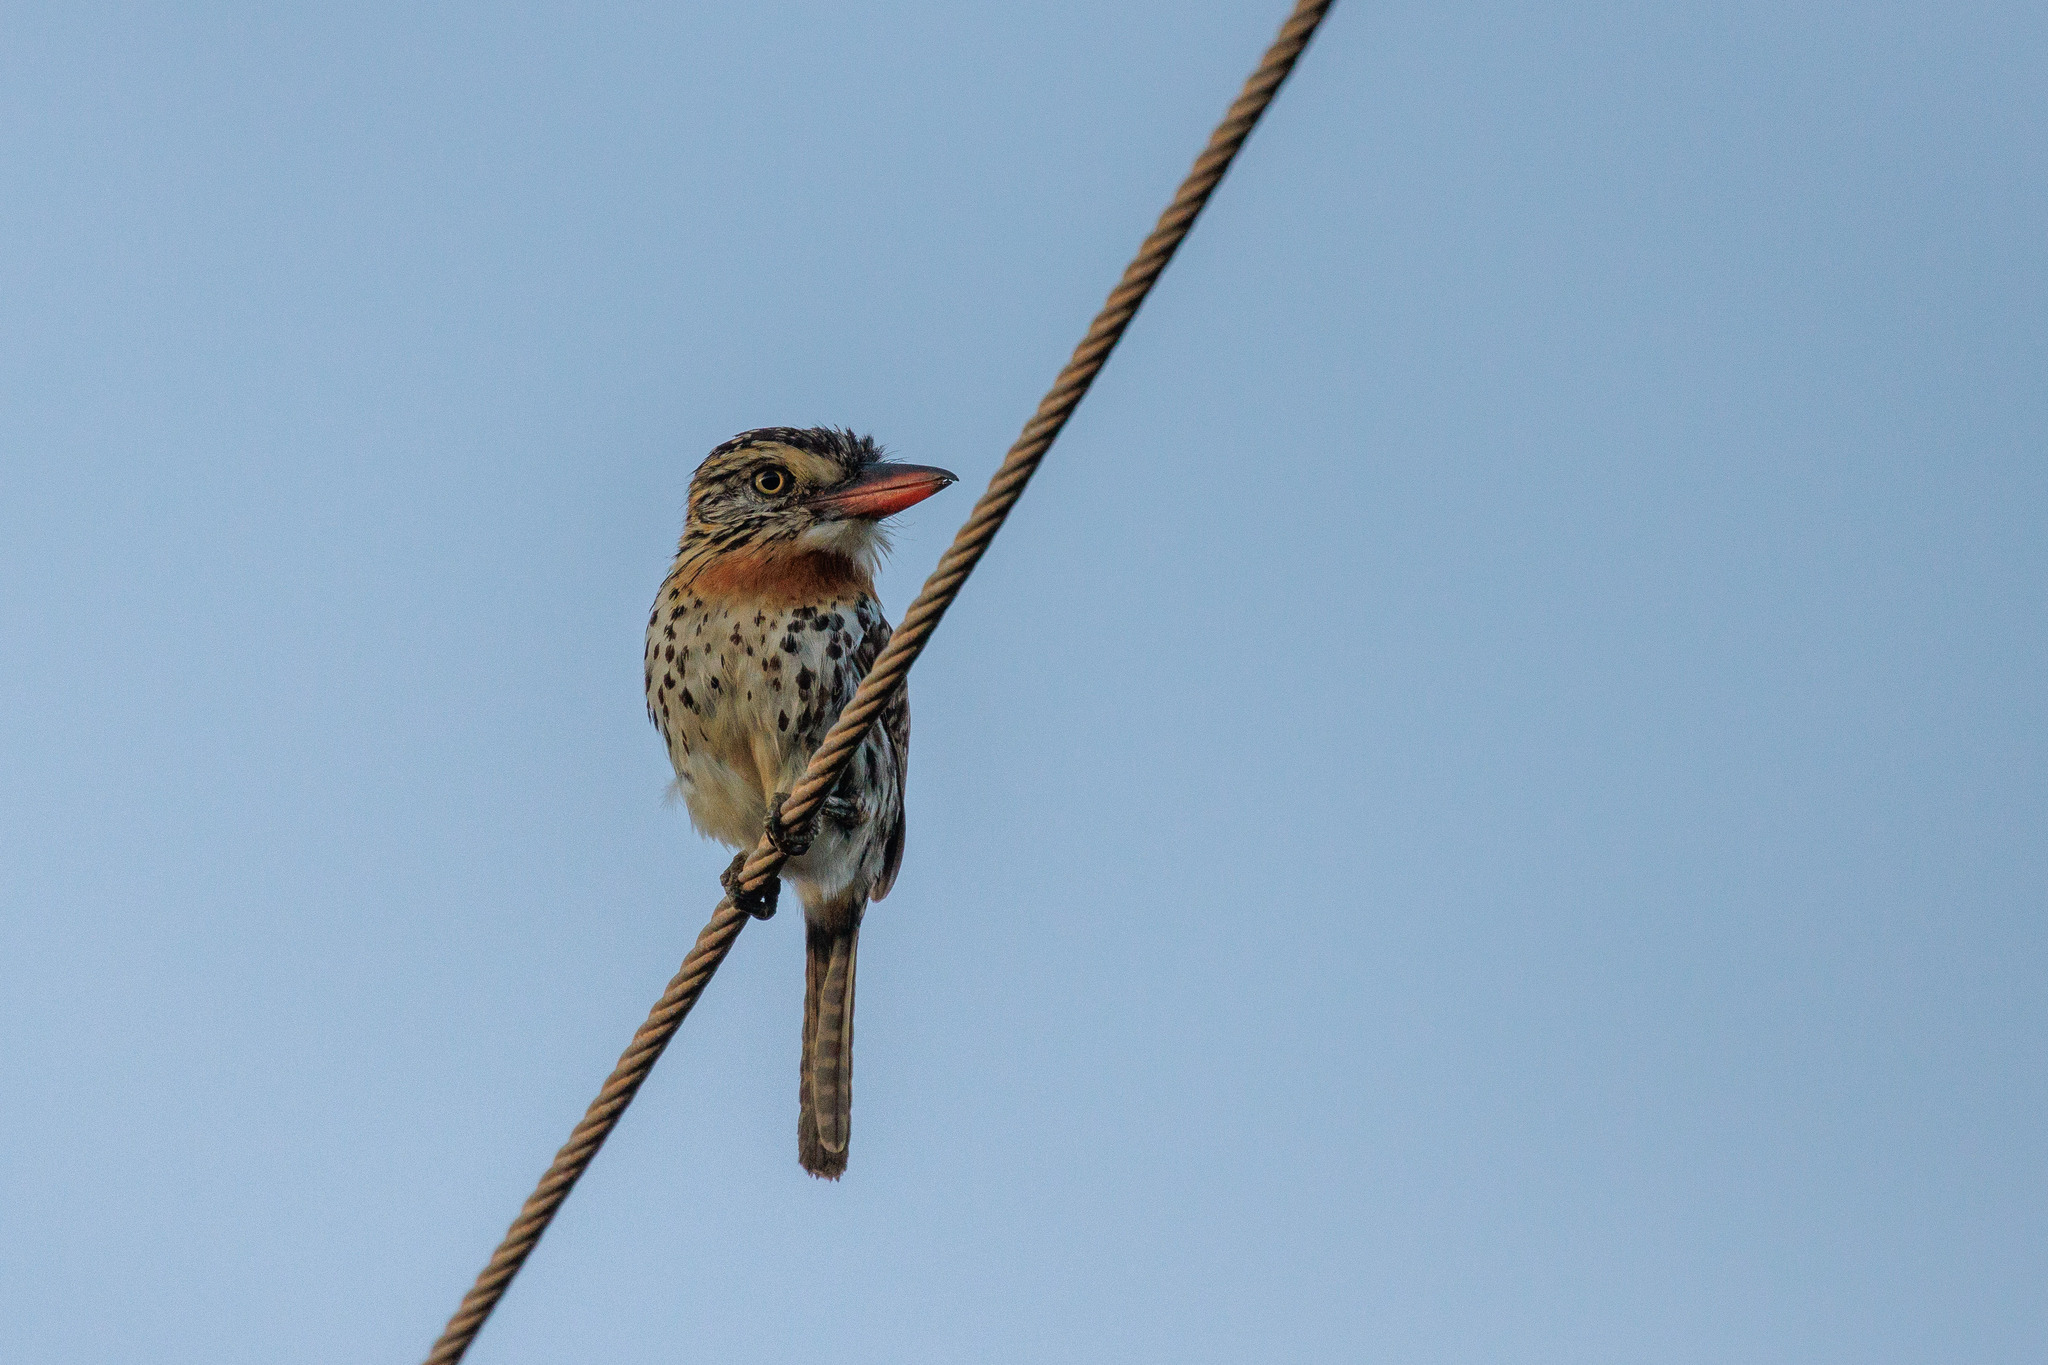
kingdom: Animalia
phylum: Chordata
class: Aves
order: Piciformes
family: Bucconidae
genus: Nystalus
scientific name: Nystalus maculatus
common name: Caatinga puffbird
